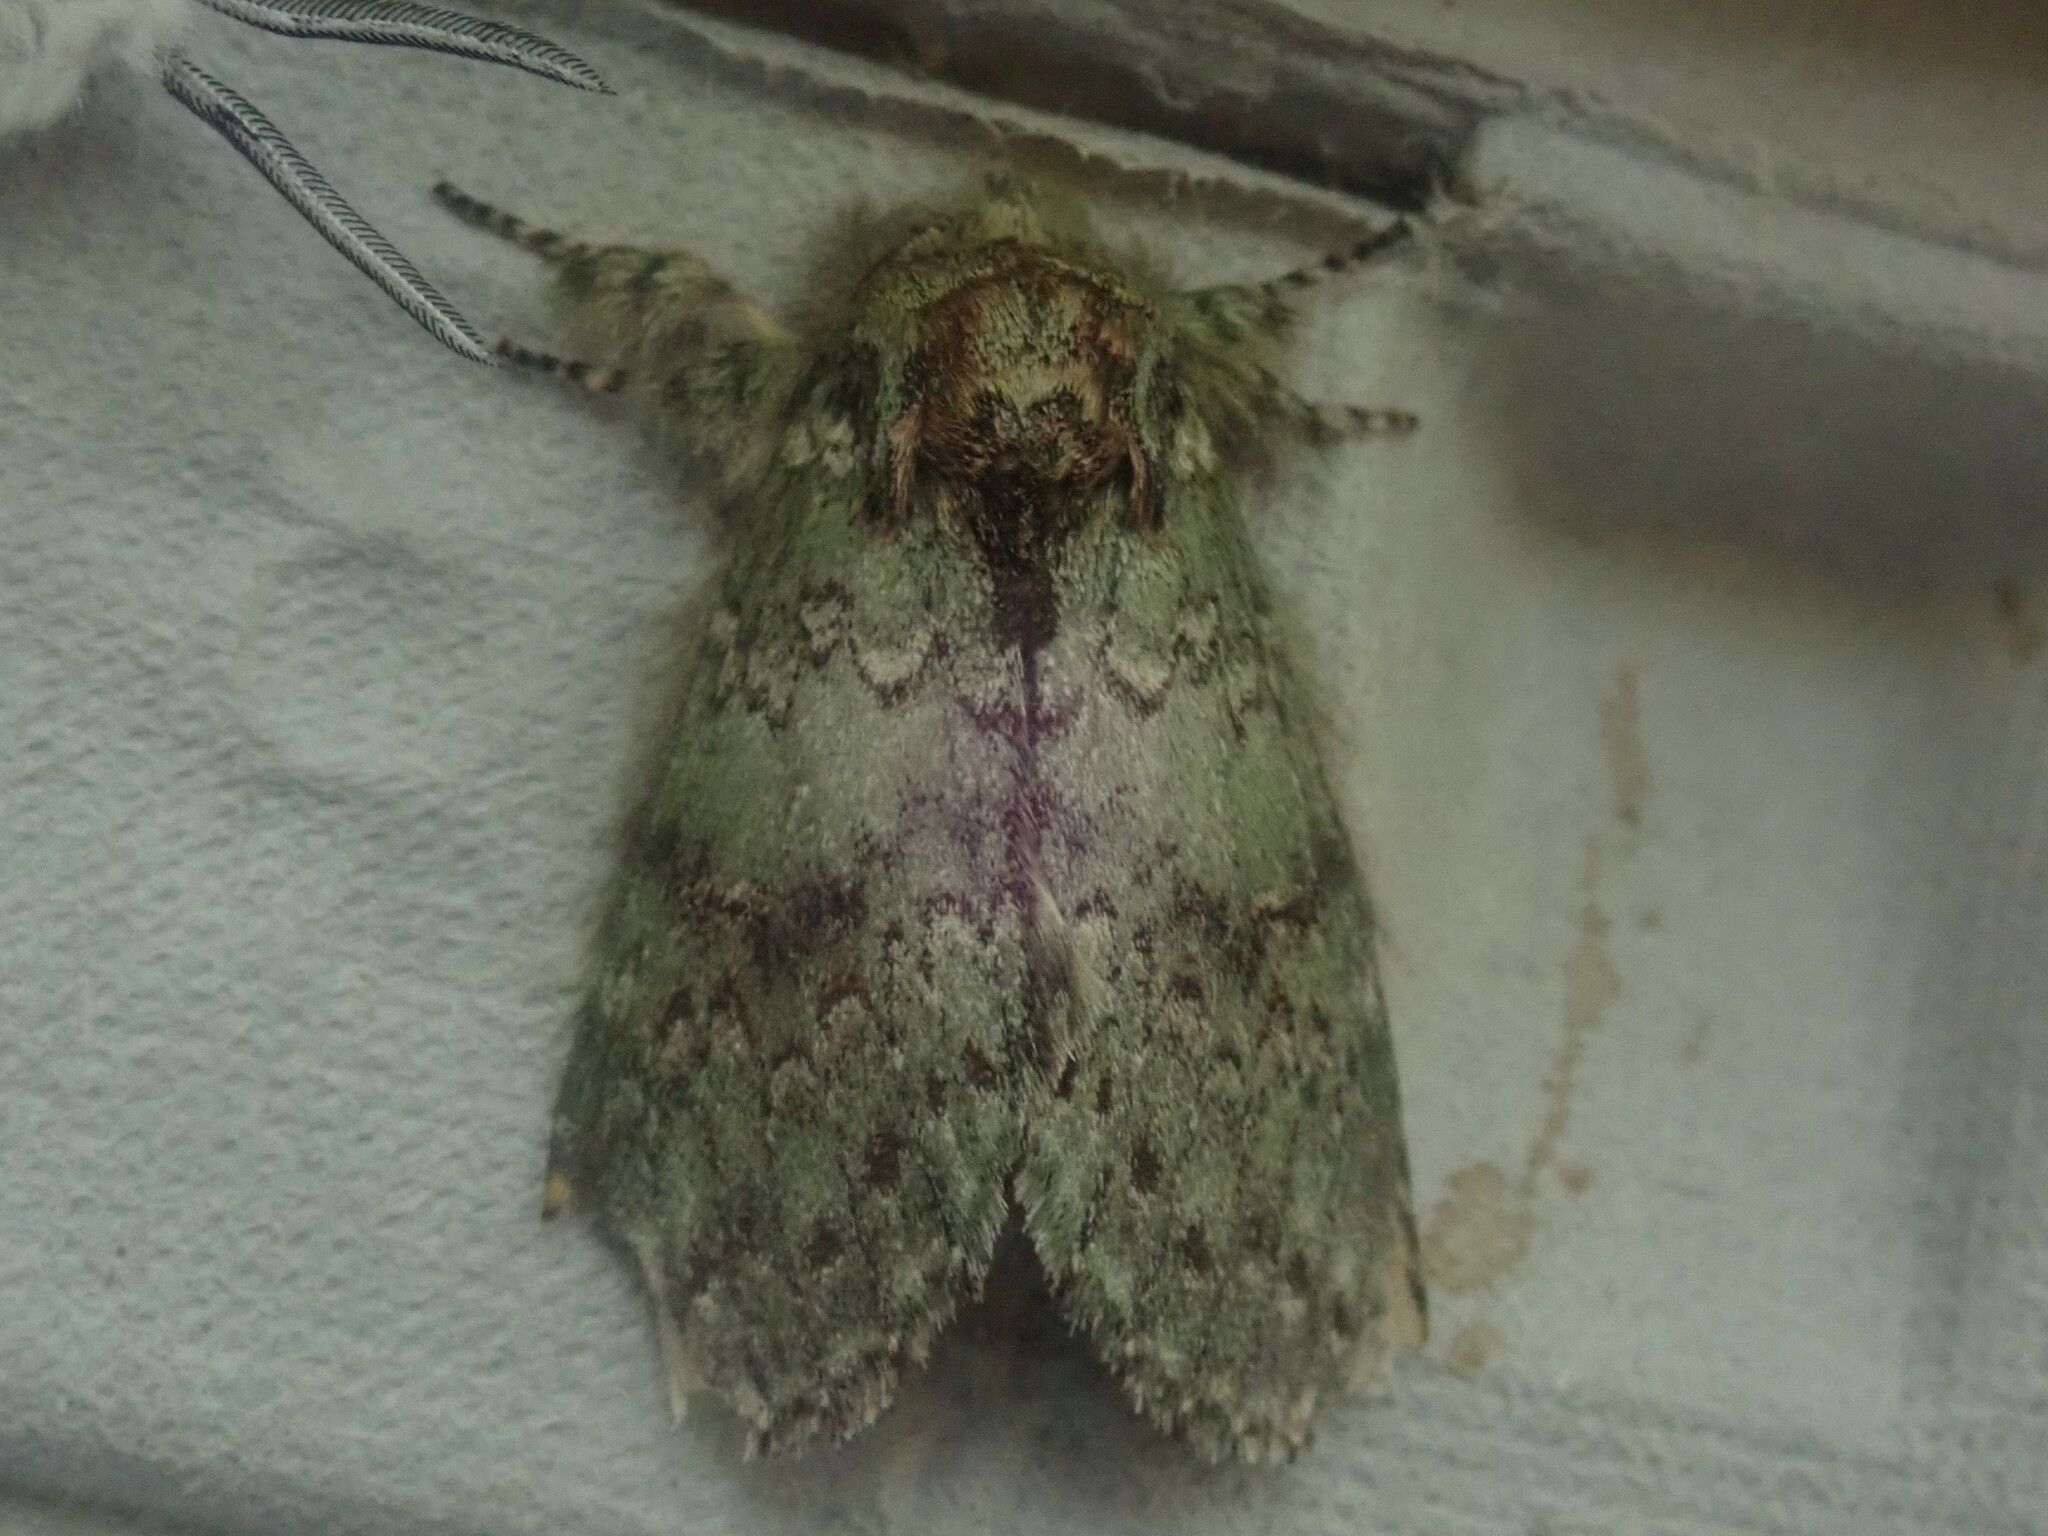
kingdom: Animalia
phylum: Arthropoda
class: Insecta
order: Lepidoptera
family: Notodontidae
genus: Disphragis
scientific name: Disphragis Cecrita biundata
